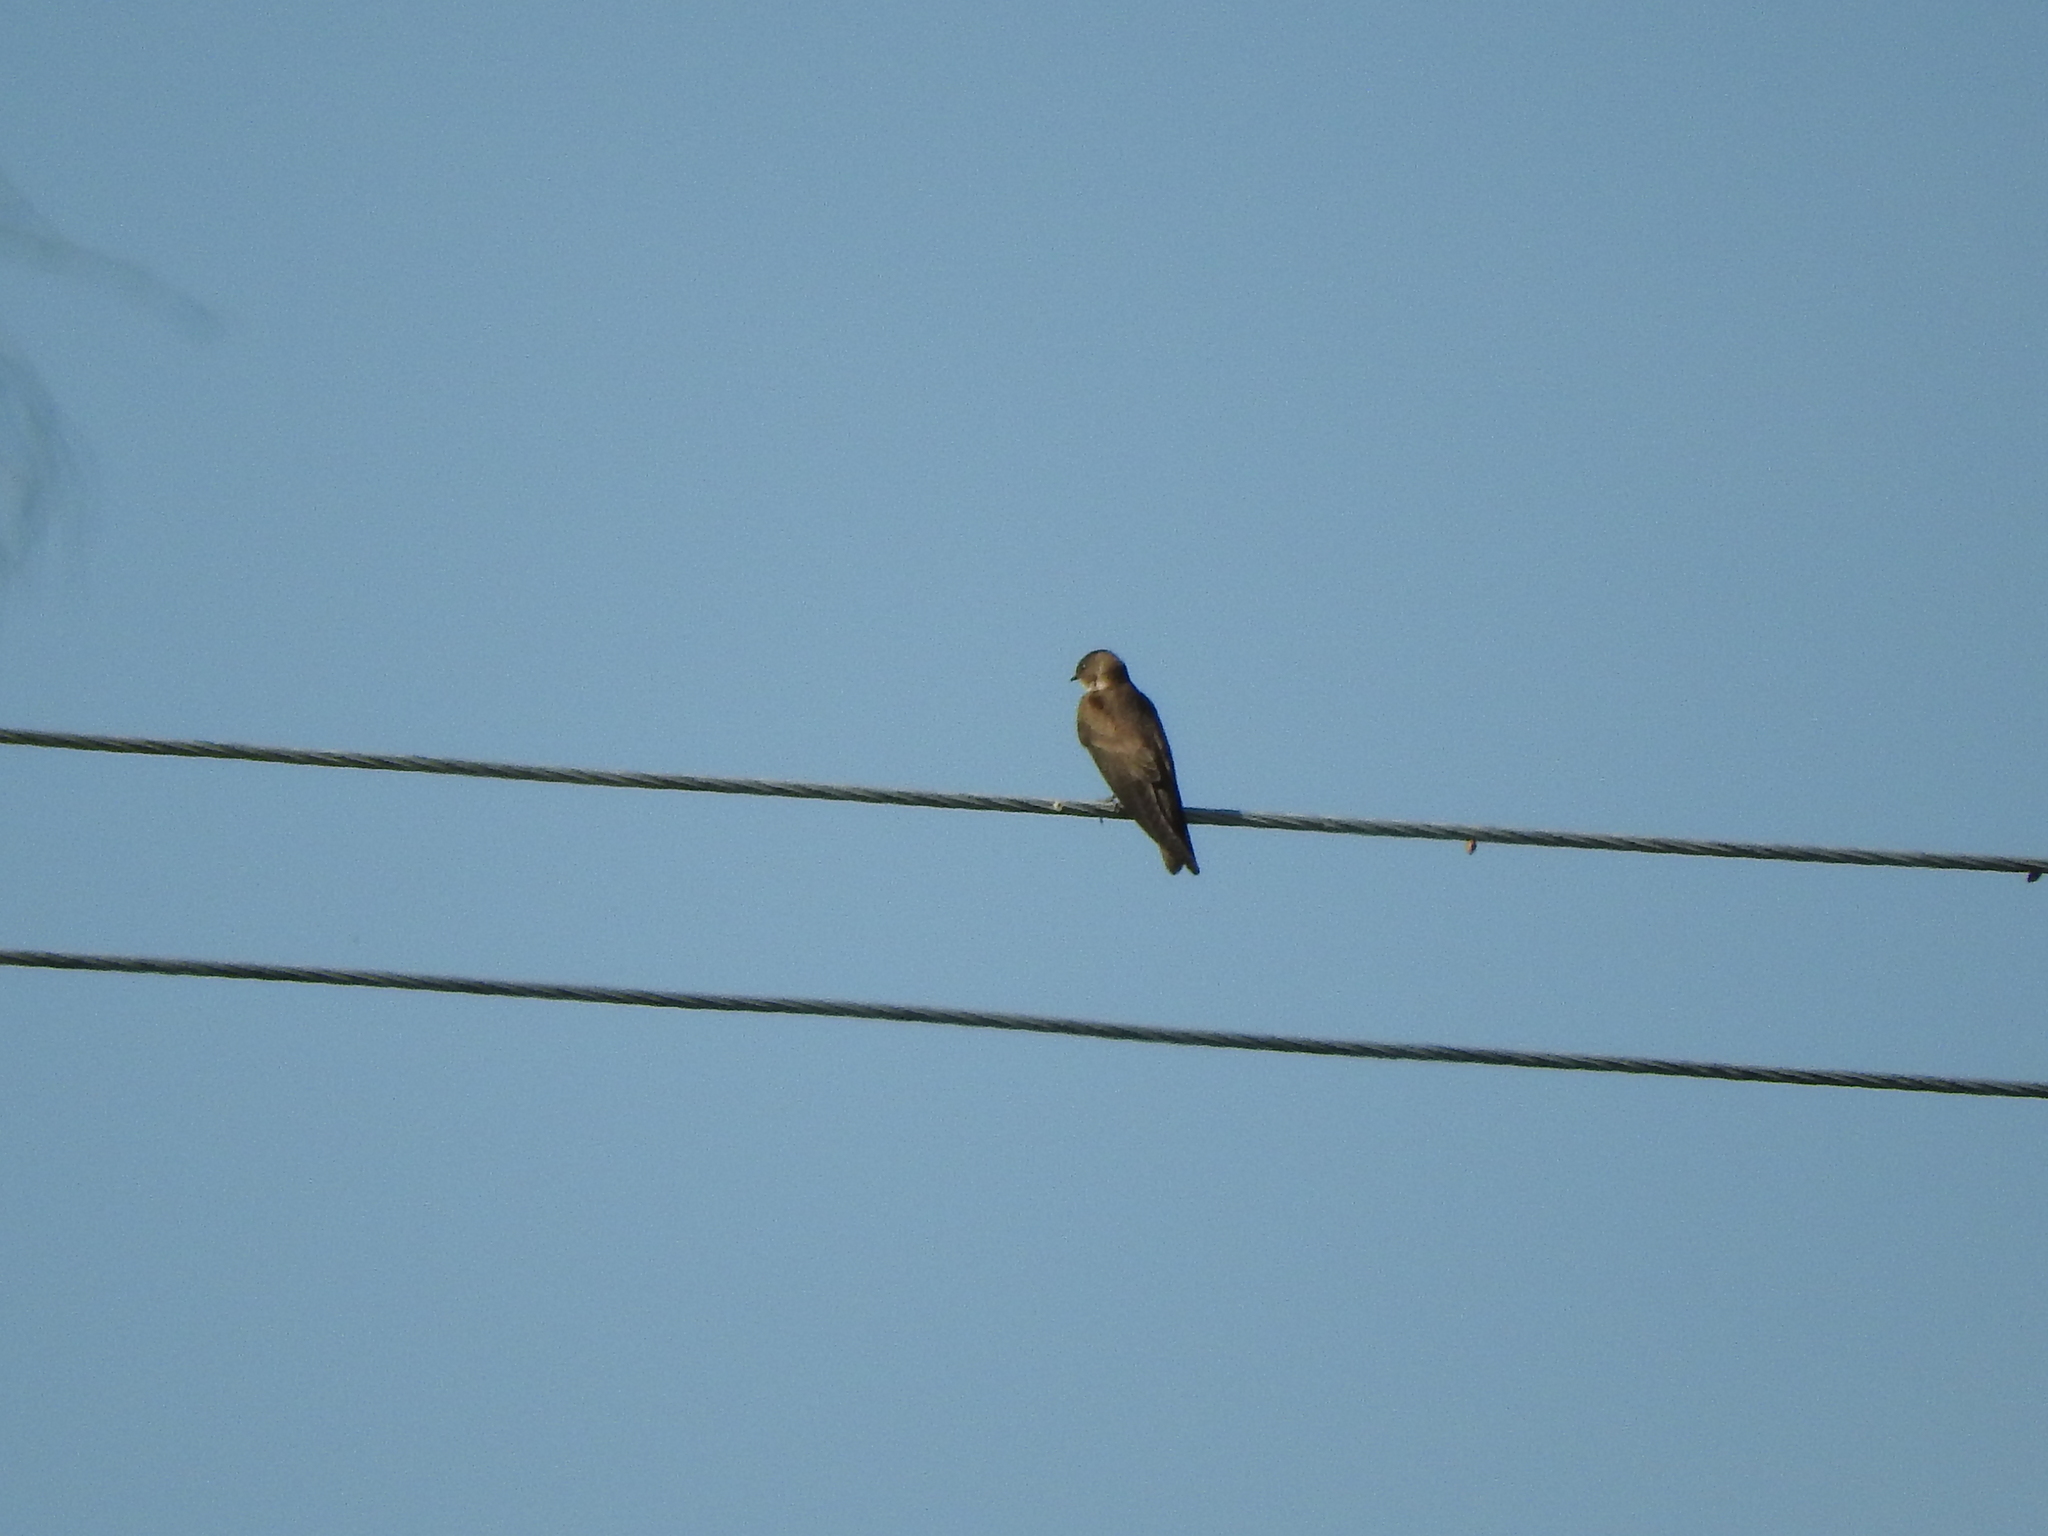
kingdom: Animalia
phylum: Chordata
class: Aves
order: Passeriformes
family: Hirundinidae
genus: Stelgidopteryx
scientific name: Stelgidopteryx serripennis
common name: Northern rough-winged swallow
